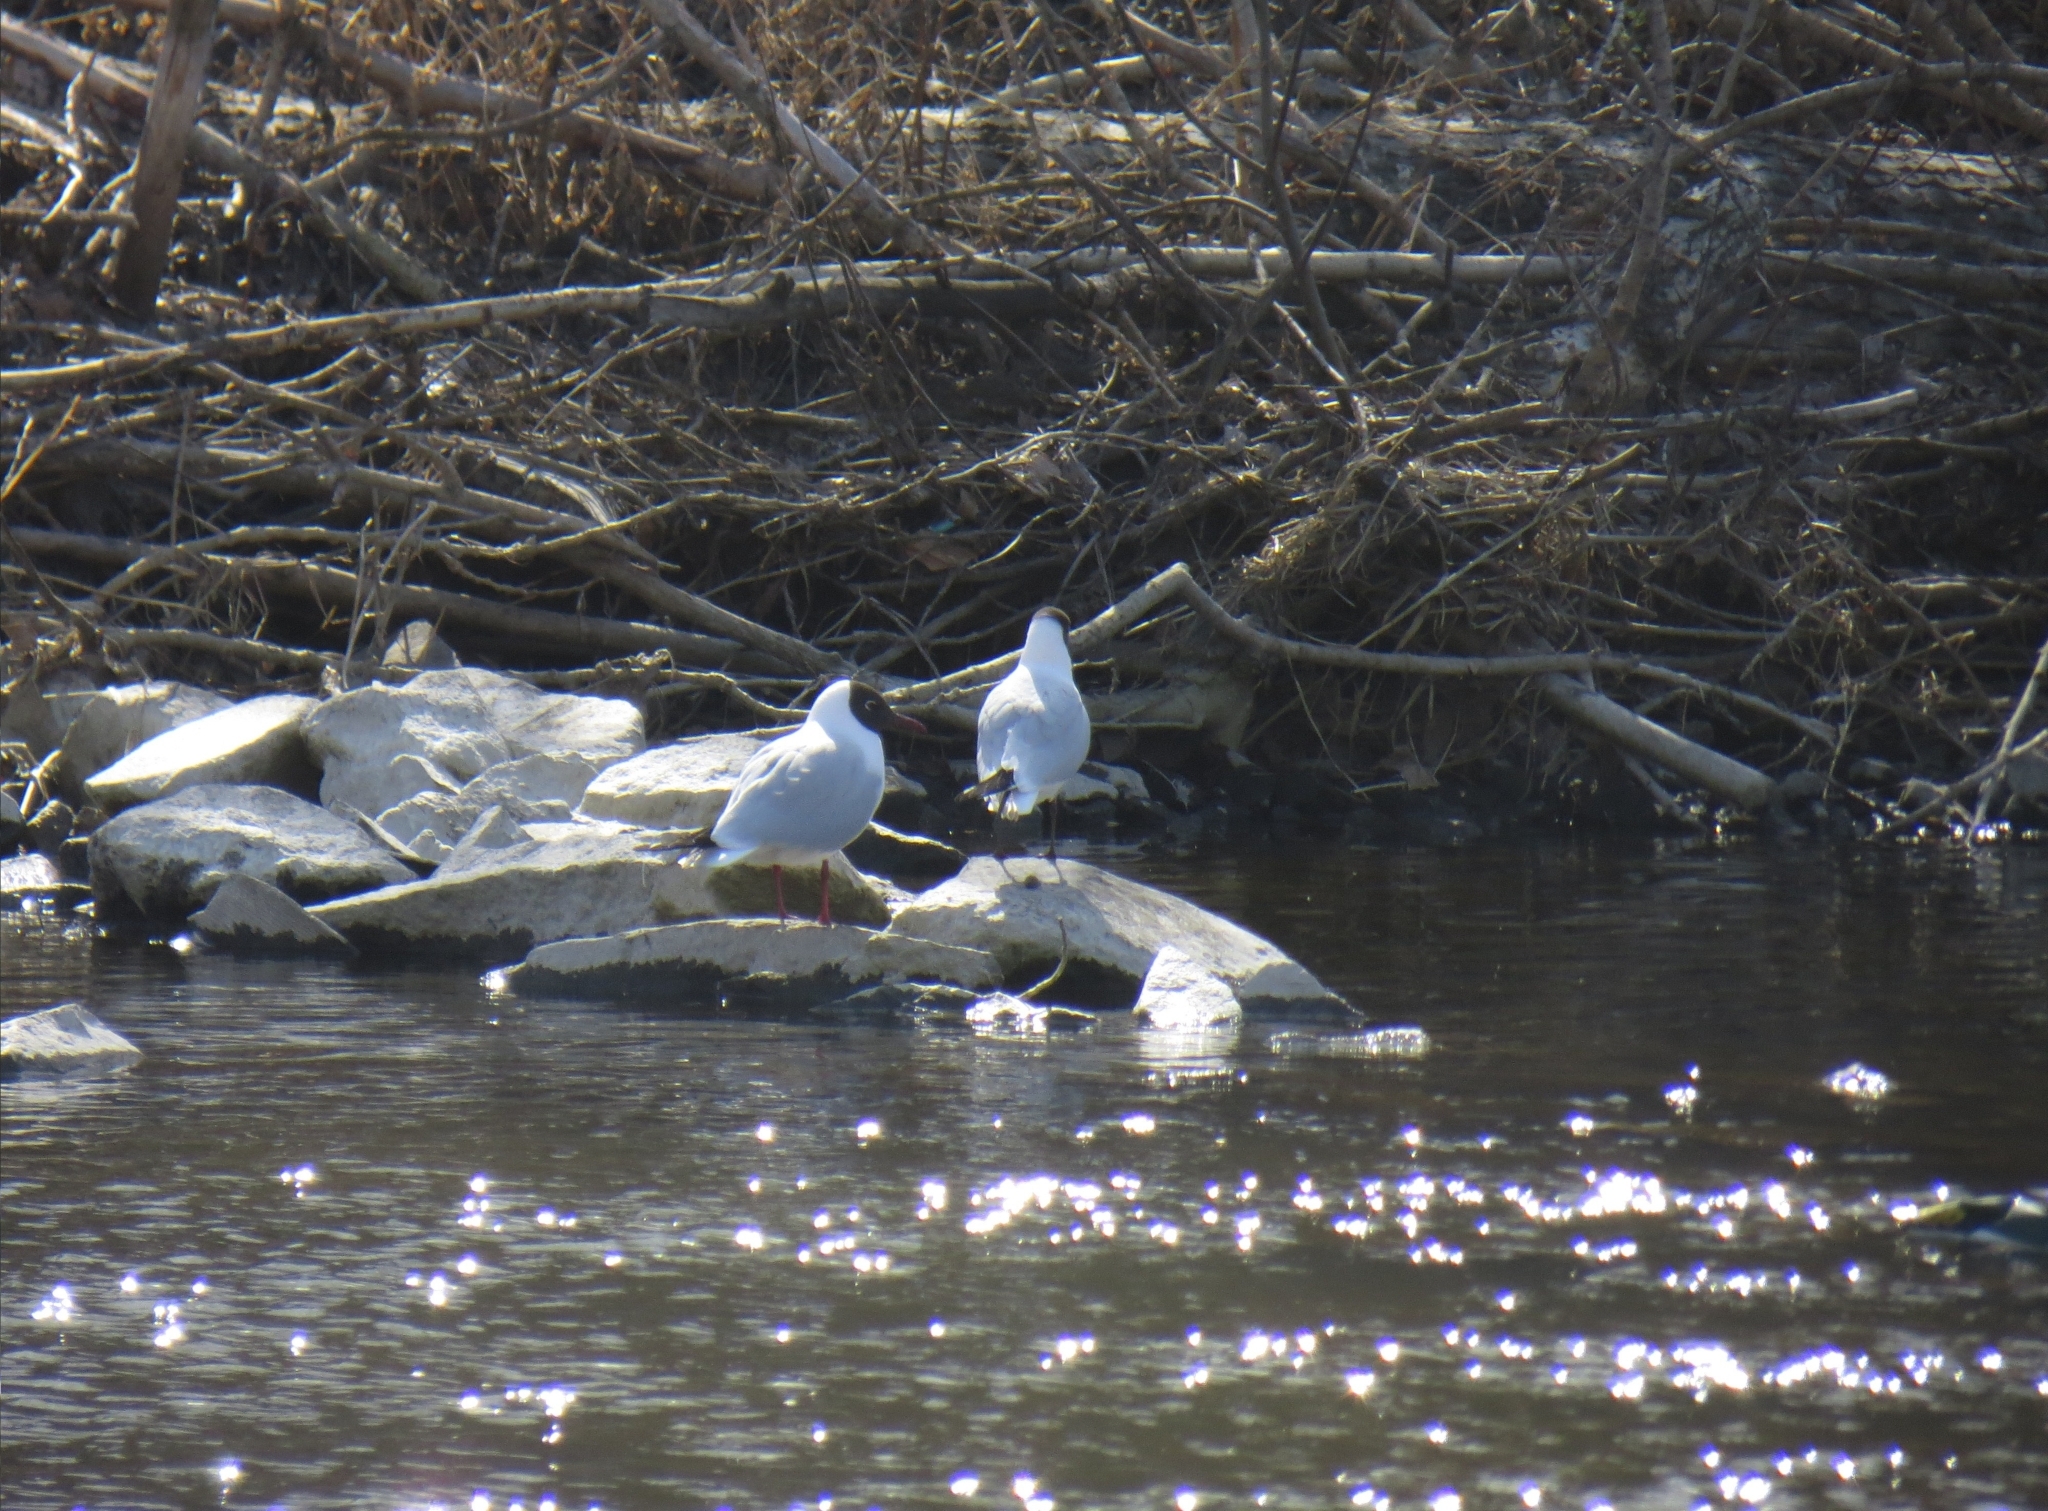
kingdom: Animalia
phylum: Chordata
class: Aves
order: Charadriiformes
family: Laridae
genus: Chroicocephalus
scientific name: Chroicocephalus ridibundus
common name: Black-headed gull
